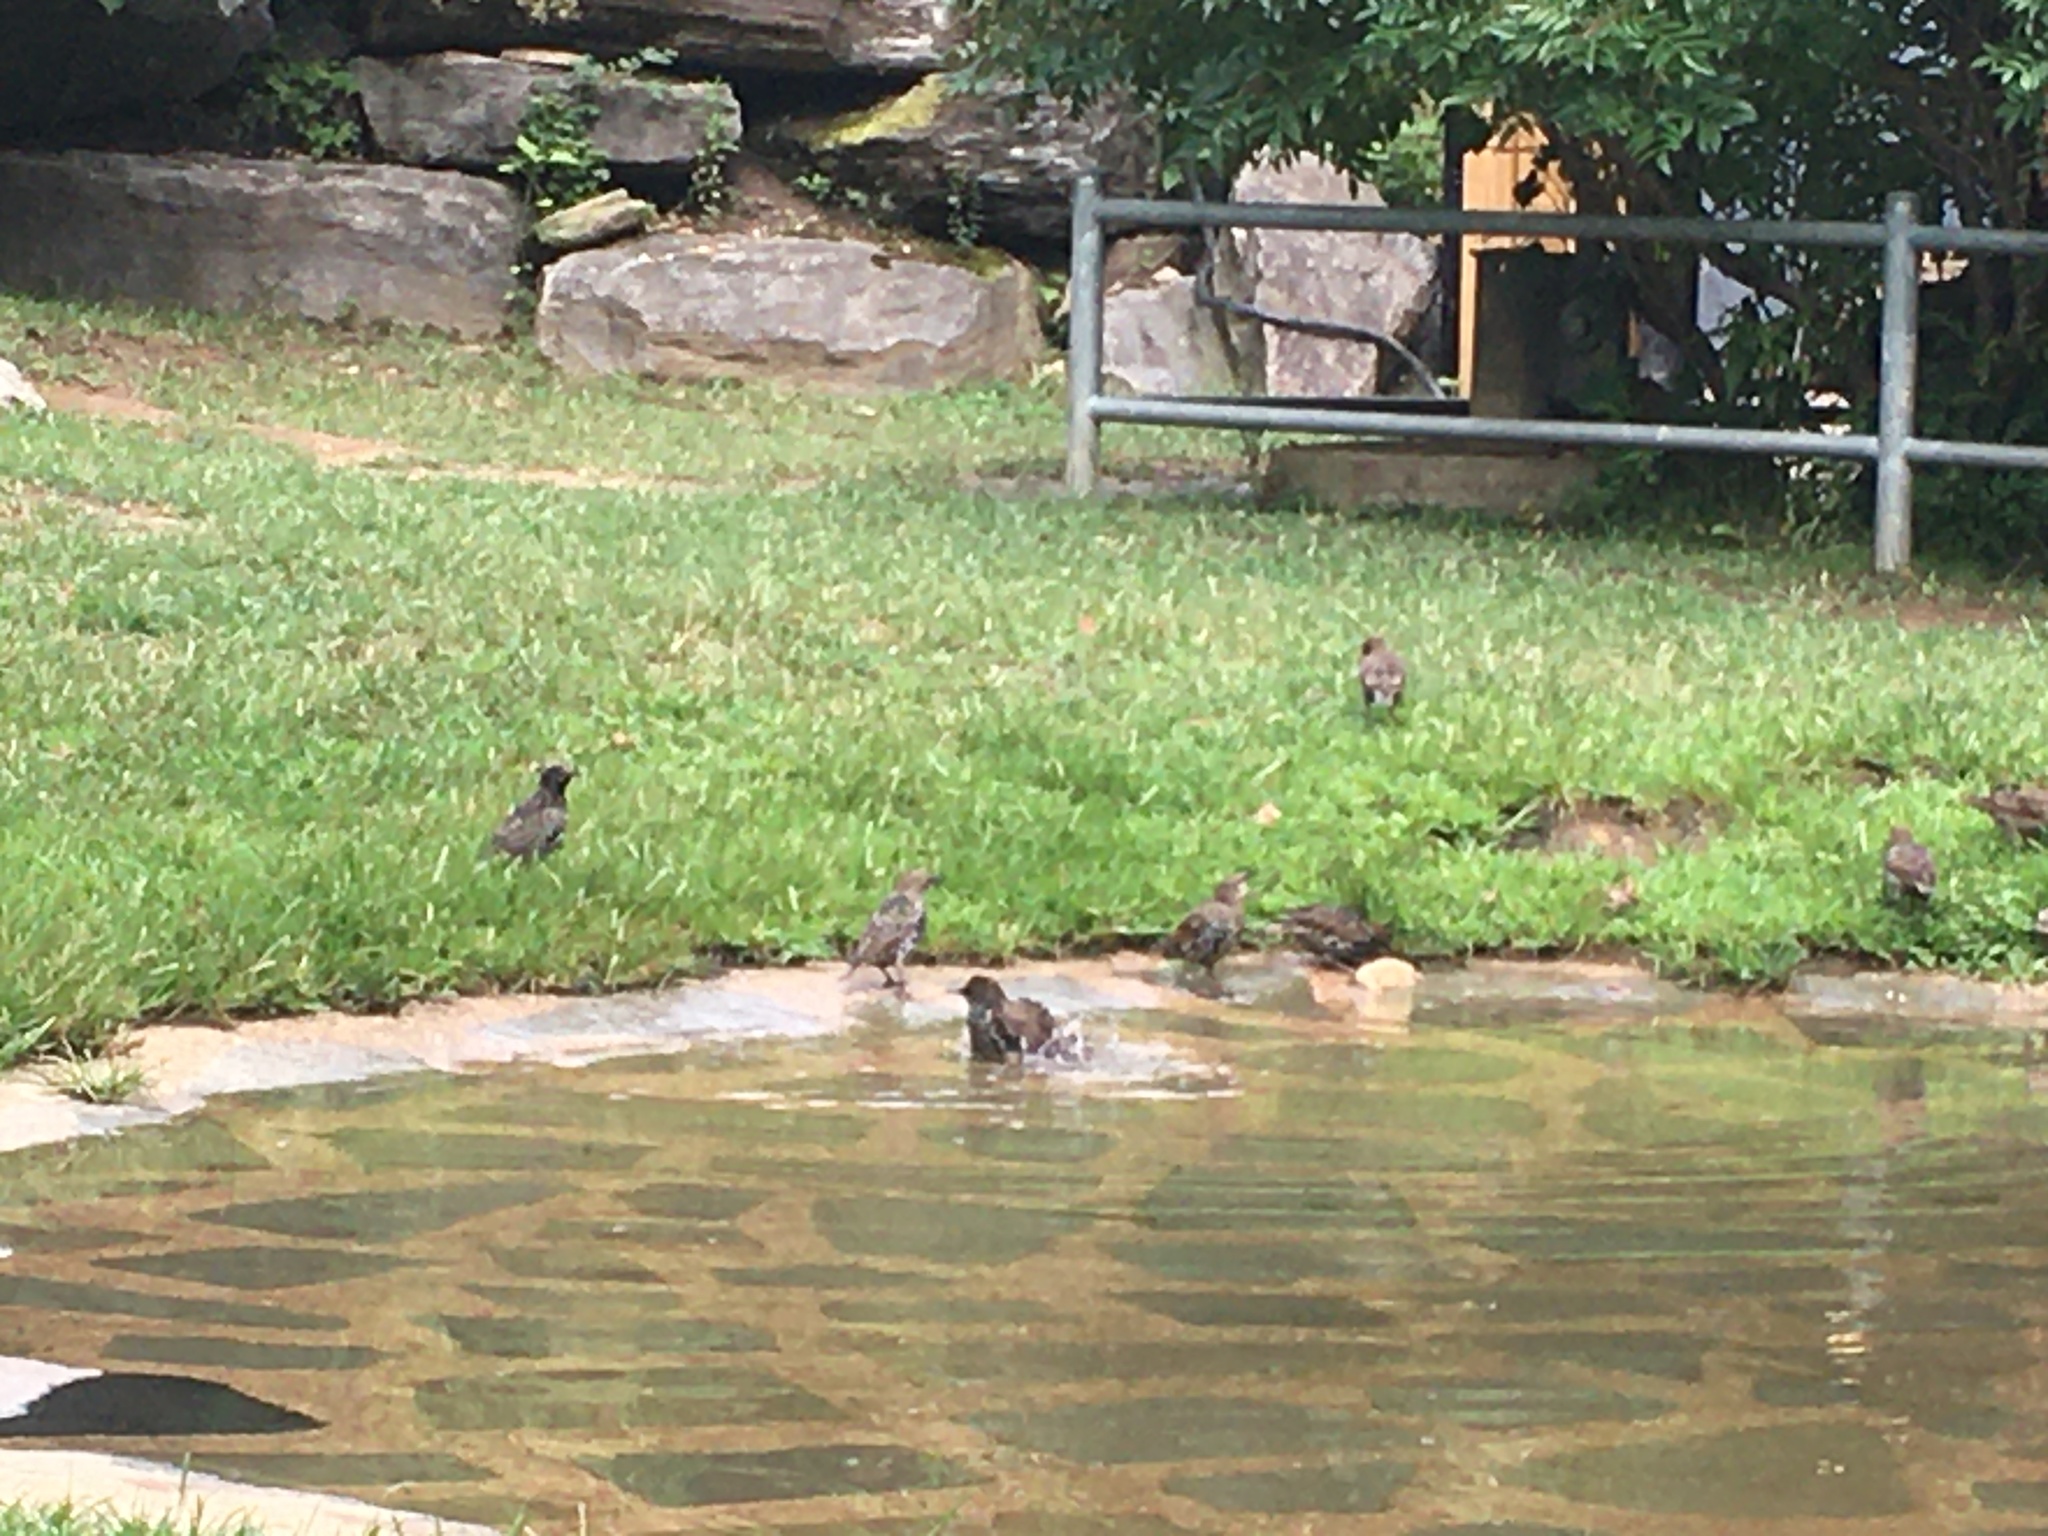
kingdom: Animalia
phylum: Chordata
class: Aves
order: Passeriformes
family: Sturnidae
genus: Sturnus
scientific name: Sturnus vulgaris
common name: Common starling
